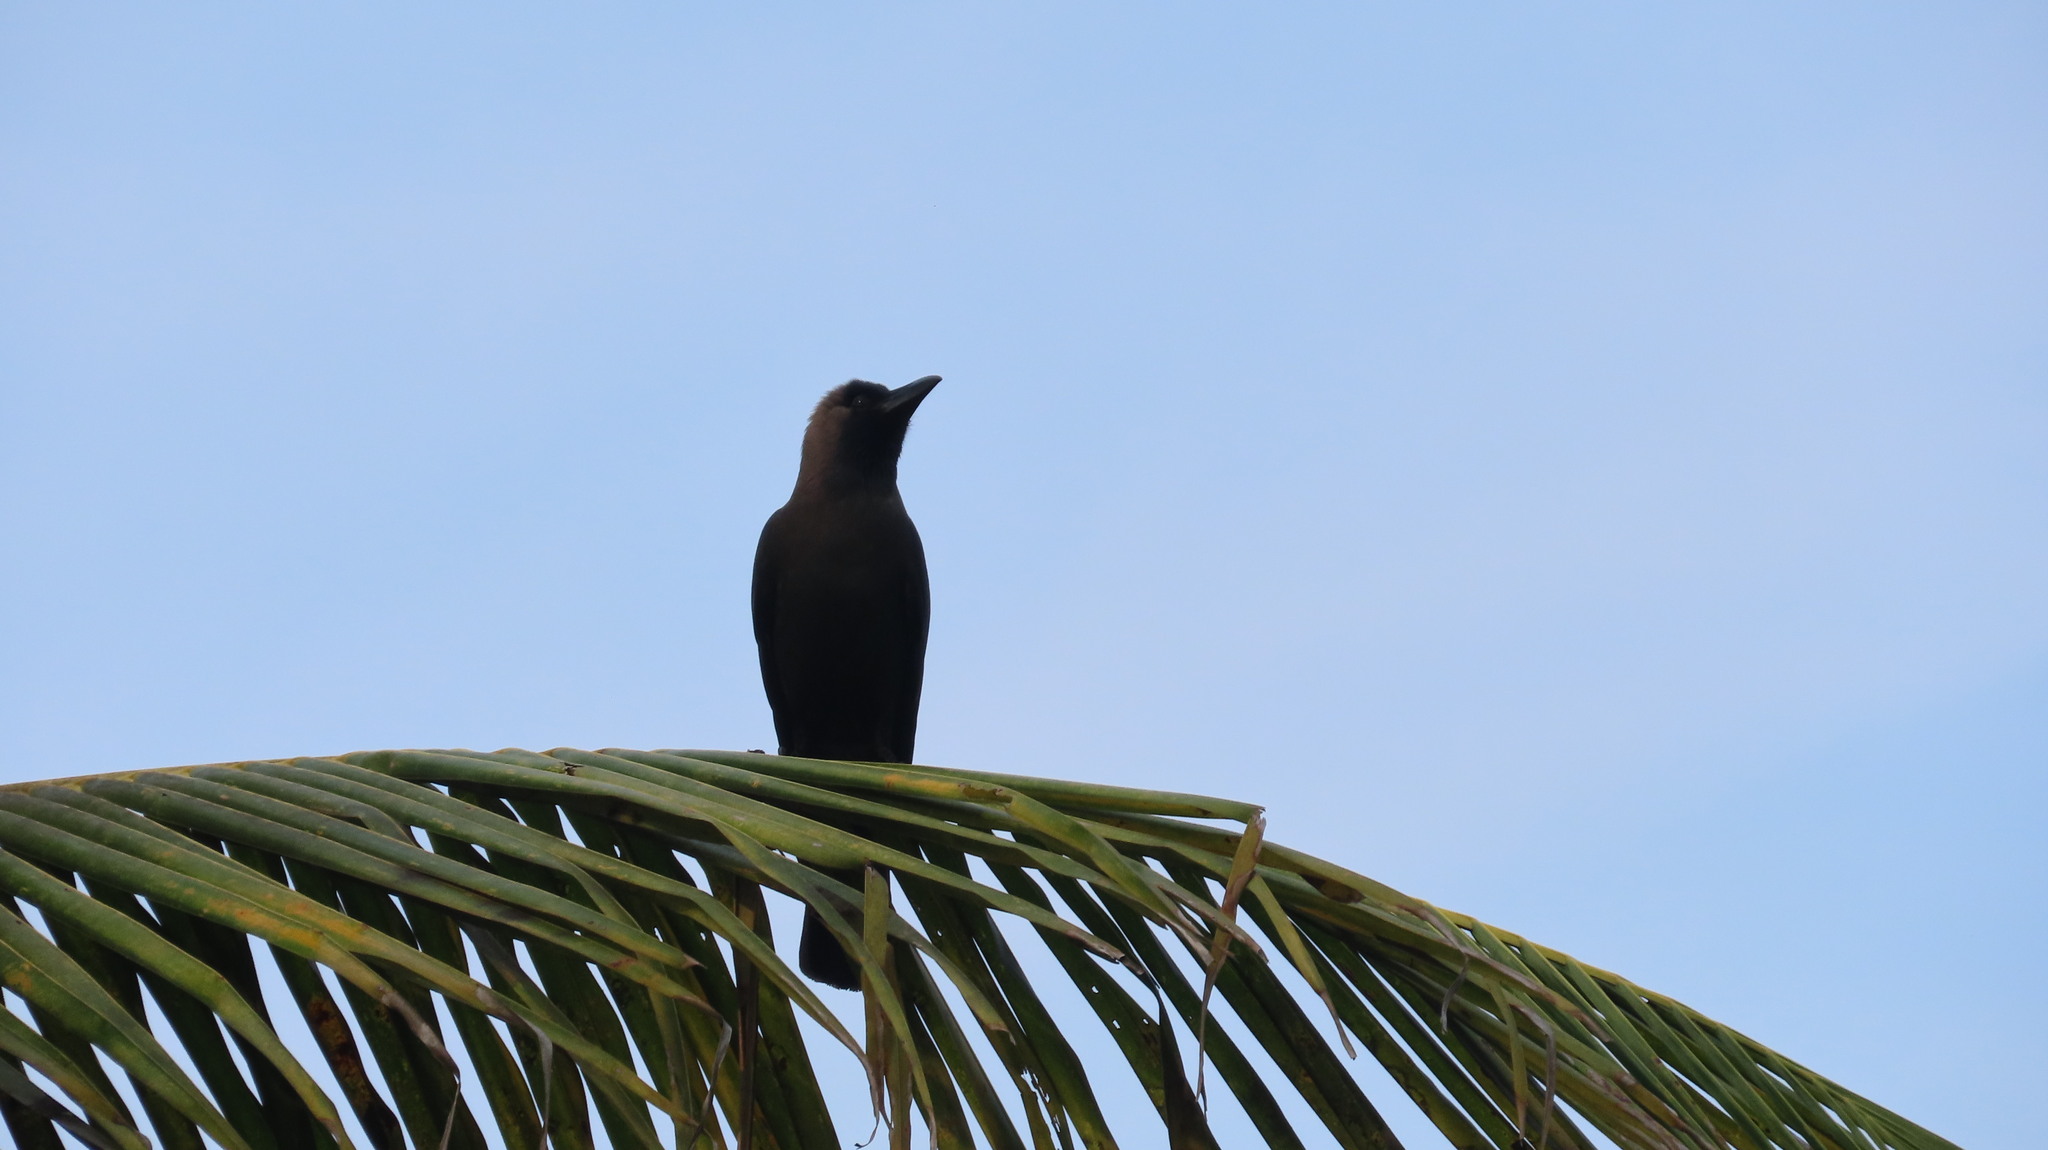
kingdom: Animalia
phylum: Chordata
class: Aves
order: Passeriformes
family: Corvidae
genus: Corvus
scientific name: Corvus splendens
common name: House crow
